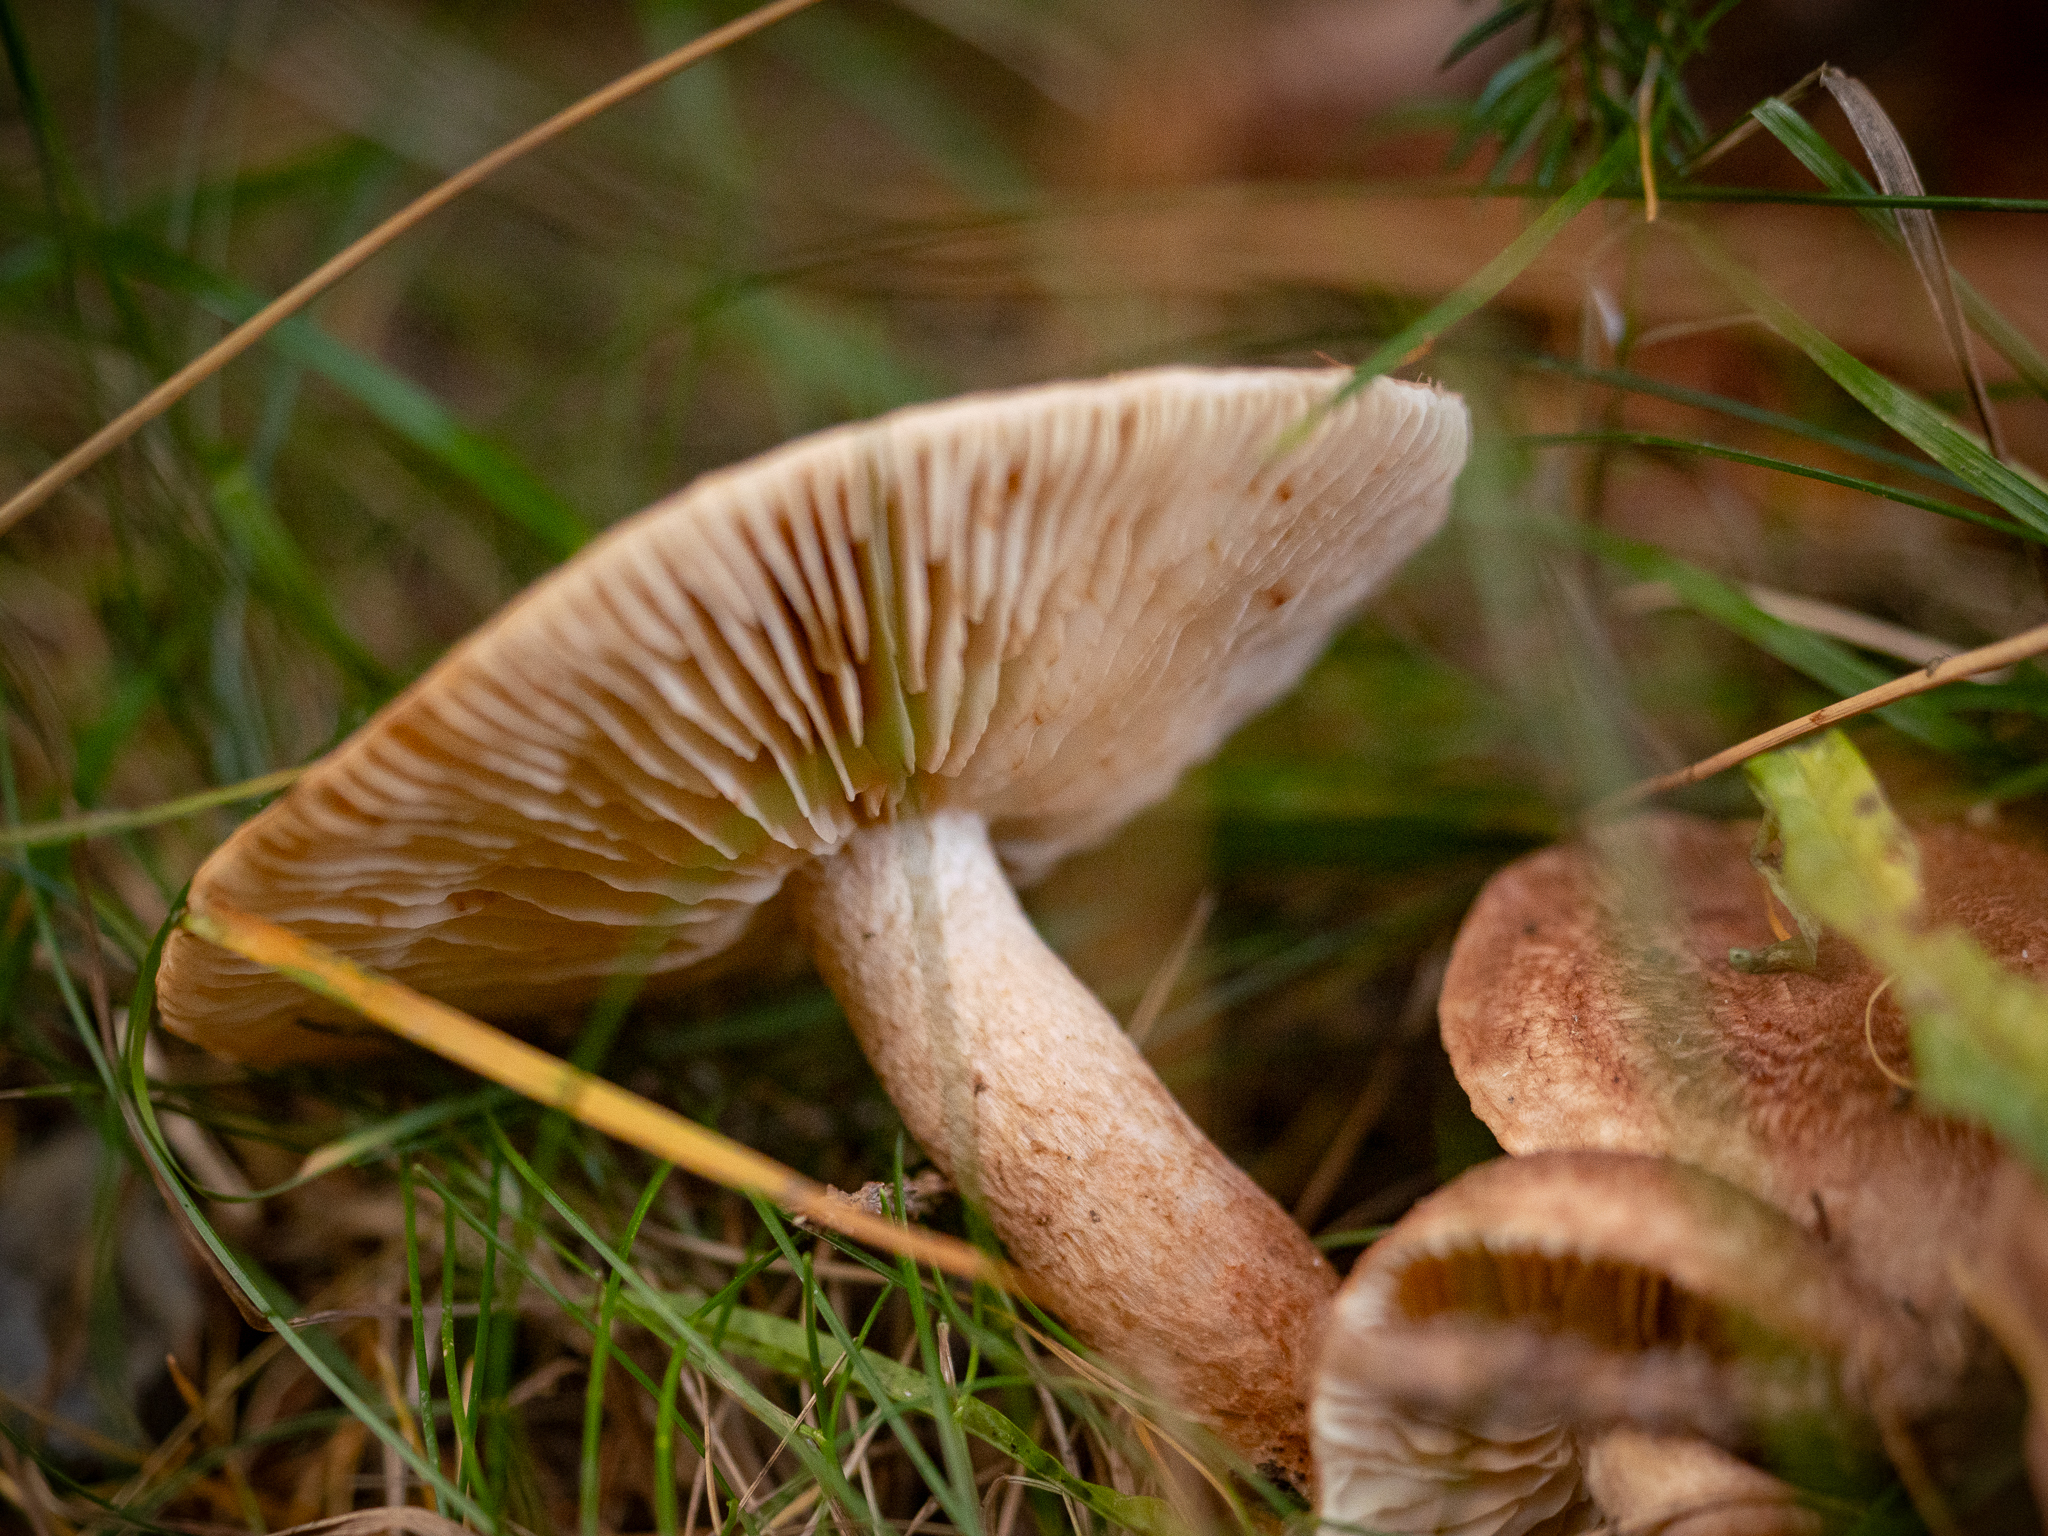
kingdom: Fungi
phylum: Basidiomycota
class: Agaricomycetes
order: Agaricales
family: Tricholomataceae
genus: Tricholoma
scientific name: Tricholoma vaccinum
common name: Scaly knight
